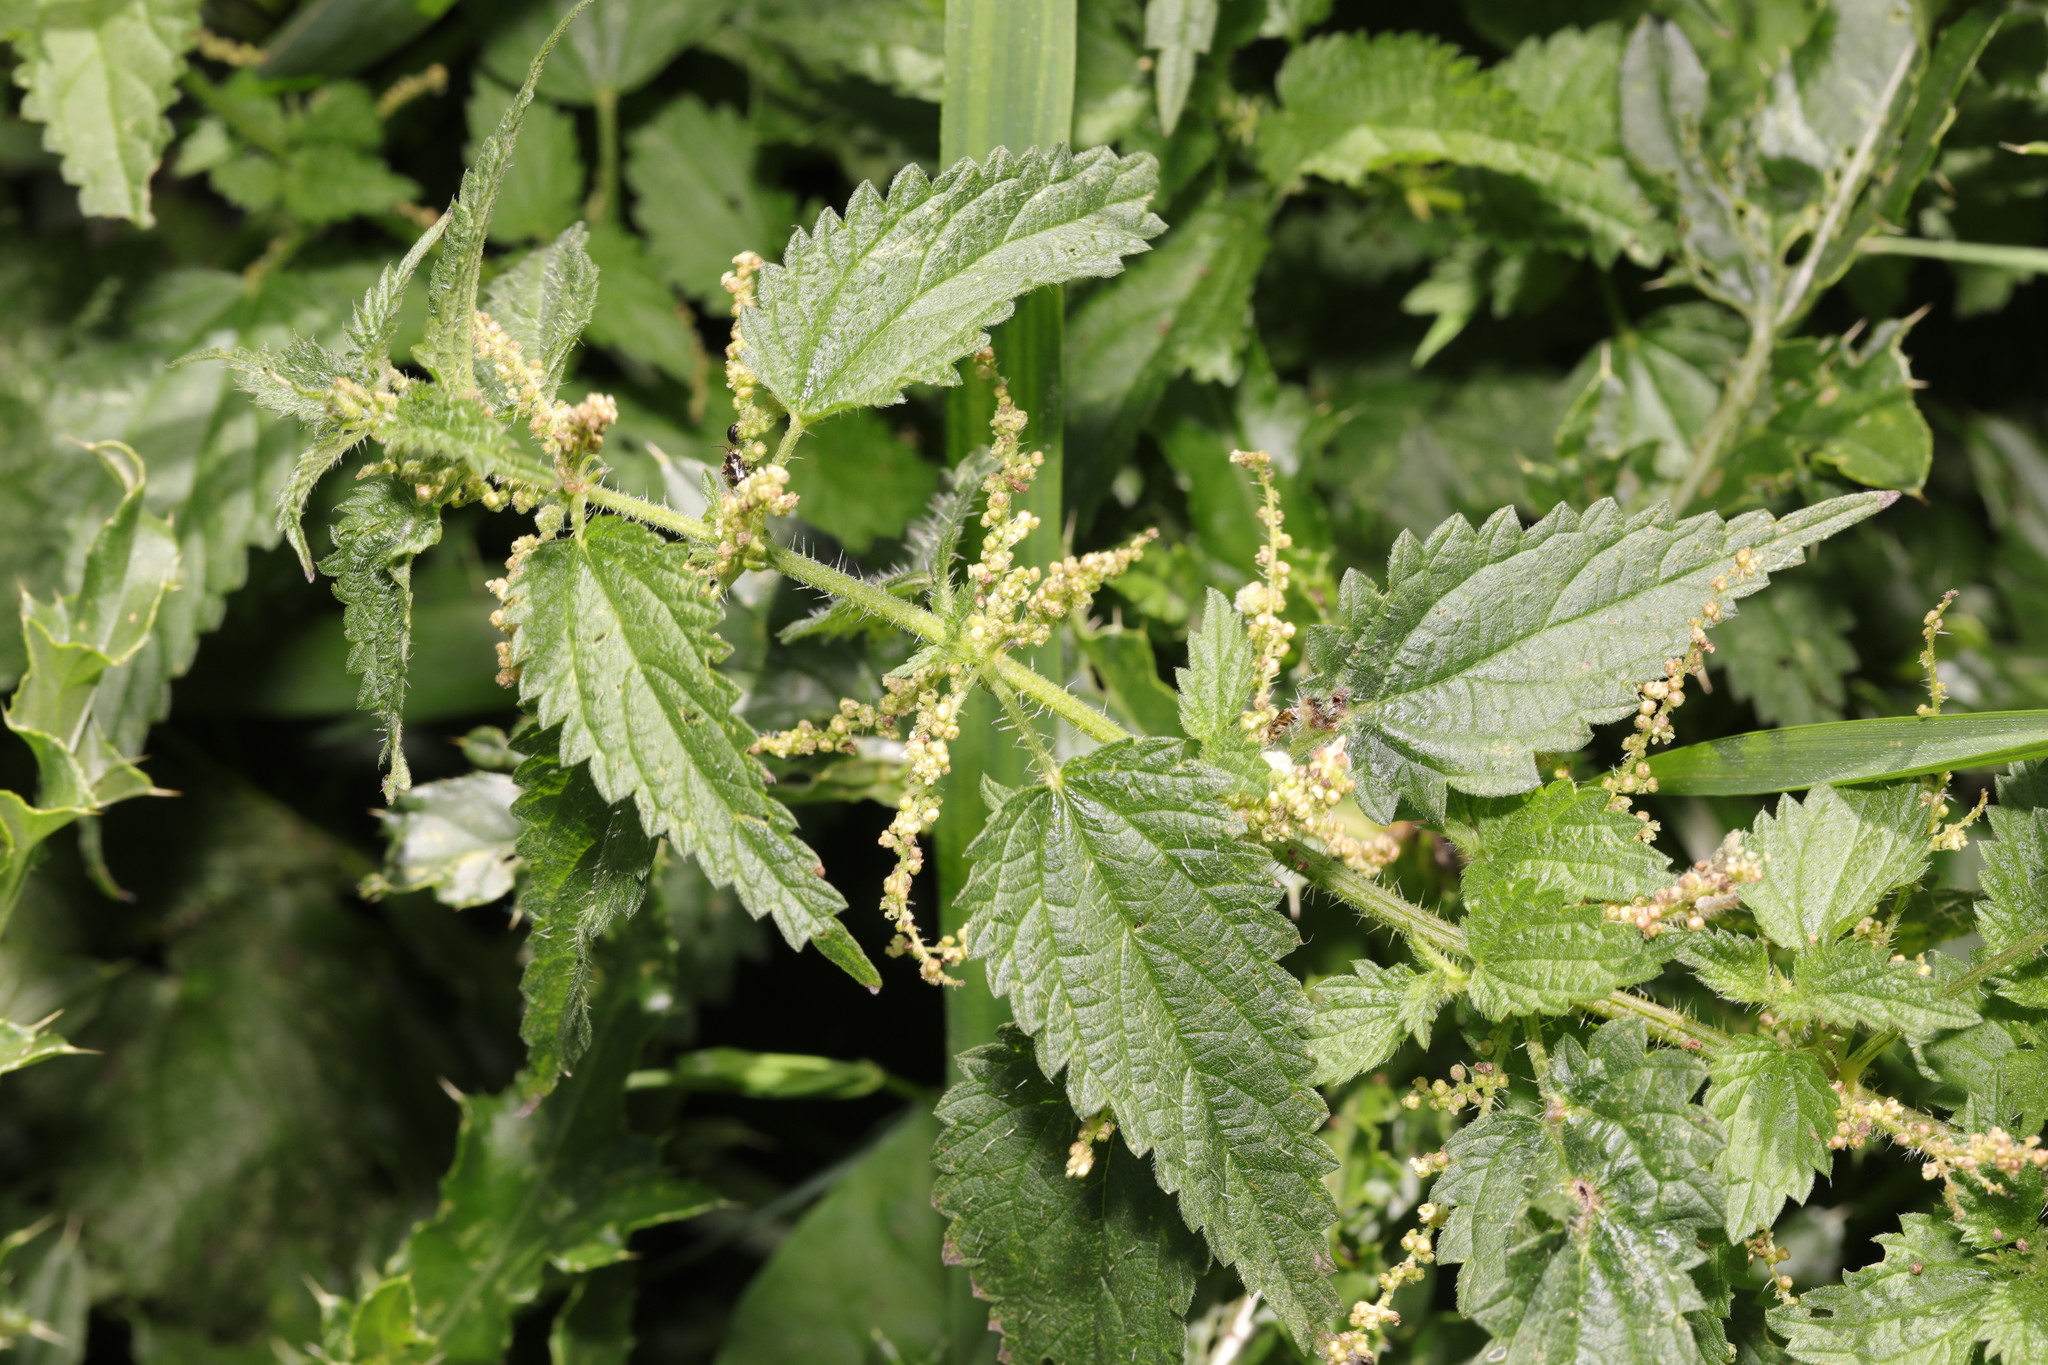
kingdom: Plantae
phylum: Tracheophyta
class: Magnoliopsida
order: Rosales
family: Urticaceae
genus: Urtica
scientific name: Urtica dioica
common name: Common nettle
